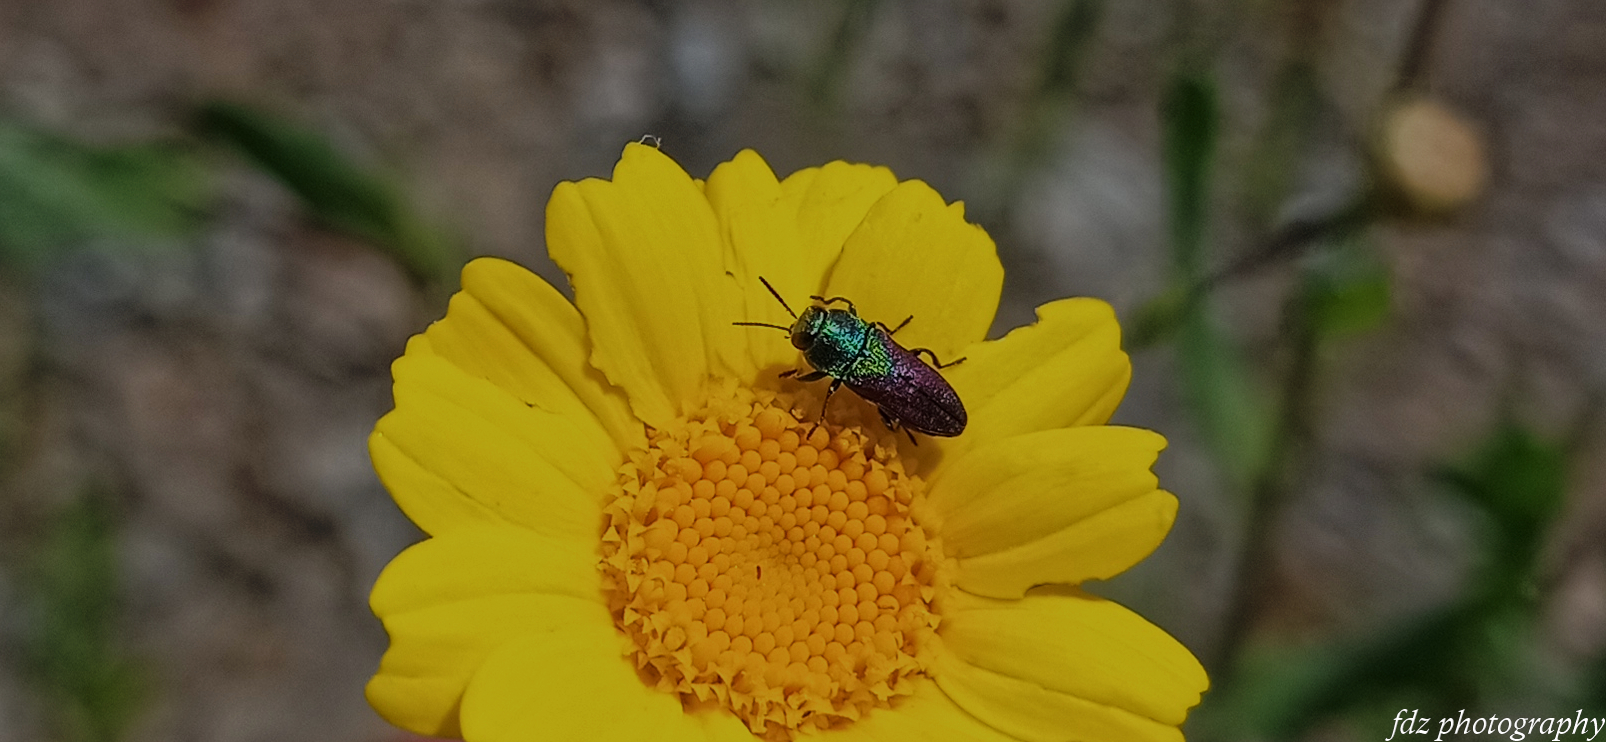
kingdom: Animalia
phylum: Arthropoda
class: Insecta
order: Coleoptera
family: Buprestidae
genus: Anthaxia
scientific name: Anthaxia salicis
